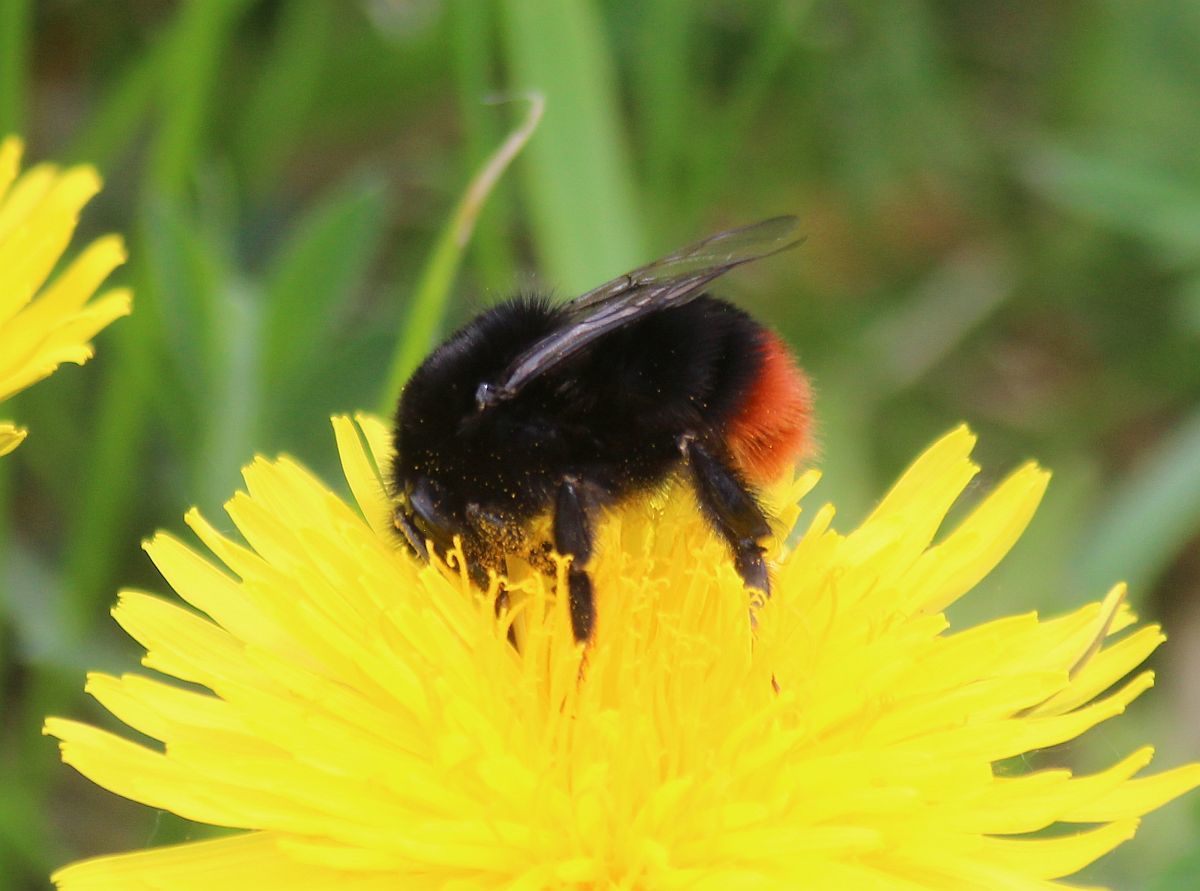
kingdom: Animalia
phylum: Arthropoda
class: Insecta
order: Hymenoptera
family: Apidae
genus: Bombus
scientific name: Bombus lapidarius
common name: Large red-tailed humble-bee
